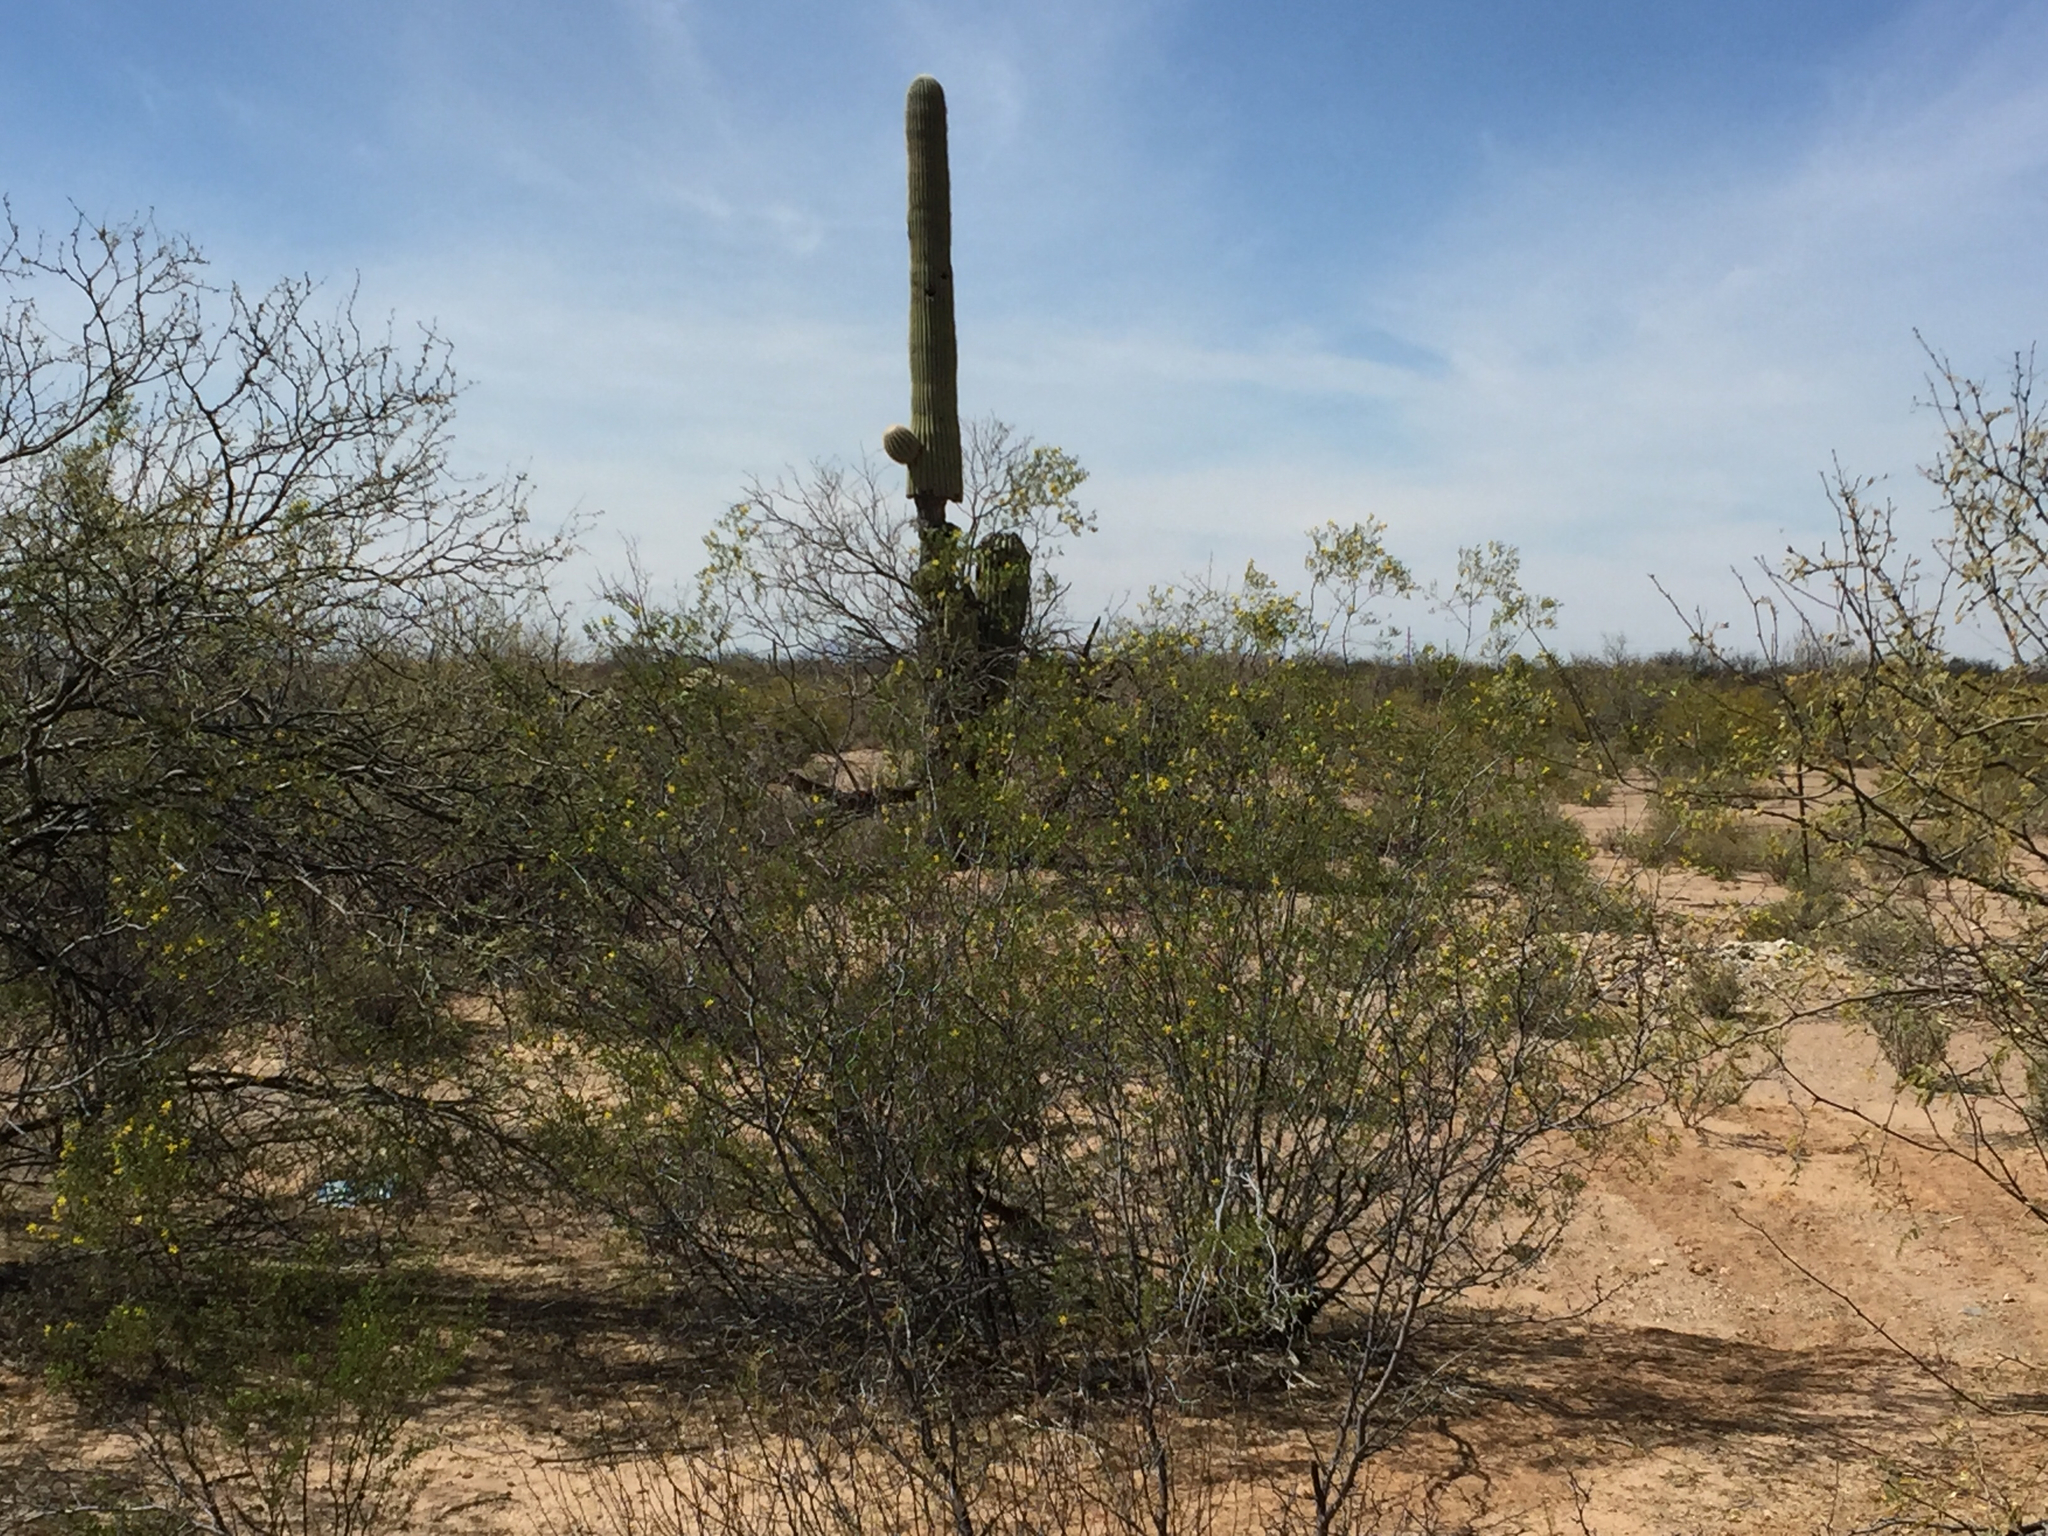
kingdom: Plantae
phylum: Tracheophyta
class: Magnoliopsida
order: Caryophyllales
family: Cactaceae
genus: Carnegiea
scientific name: Carnegiea gigantea
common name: Saguaro
